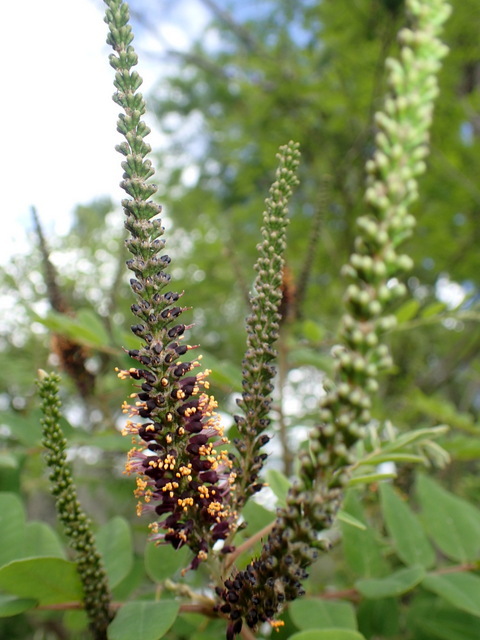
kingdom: Plantae
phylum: Tracheophyta
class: Magnoliopsida
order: Fabales
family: Fabaceae
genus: Amorpha
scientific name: Amorpha fruticosa
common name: False indigo
